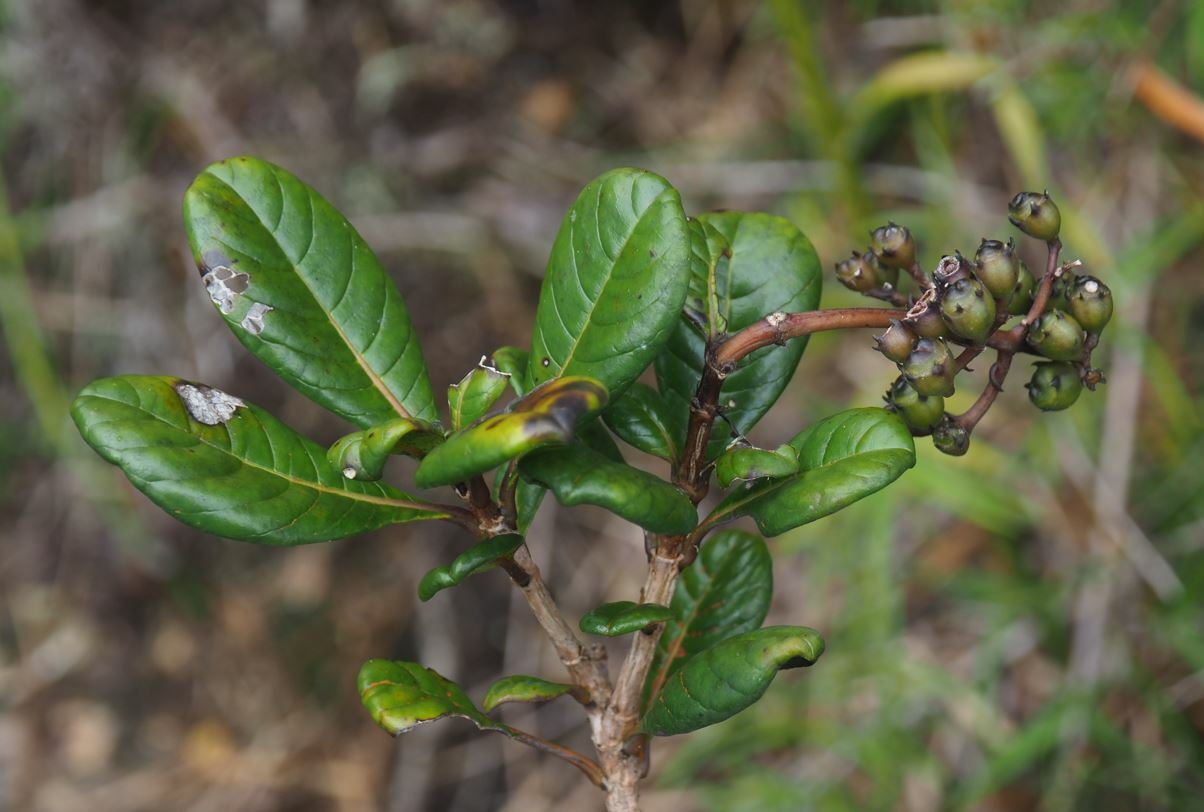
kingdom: Plantae
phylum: Tracheophyta
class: Magnoliopsida
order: Gentianales
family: Rubiaceae
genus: Schismatoclada
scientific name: Schismatoclada rubra
